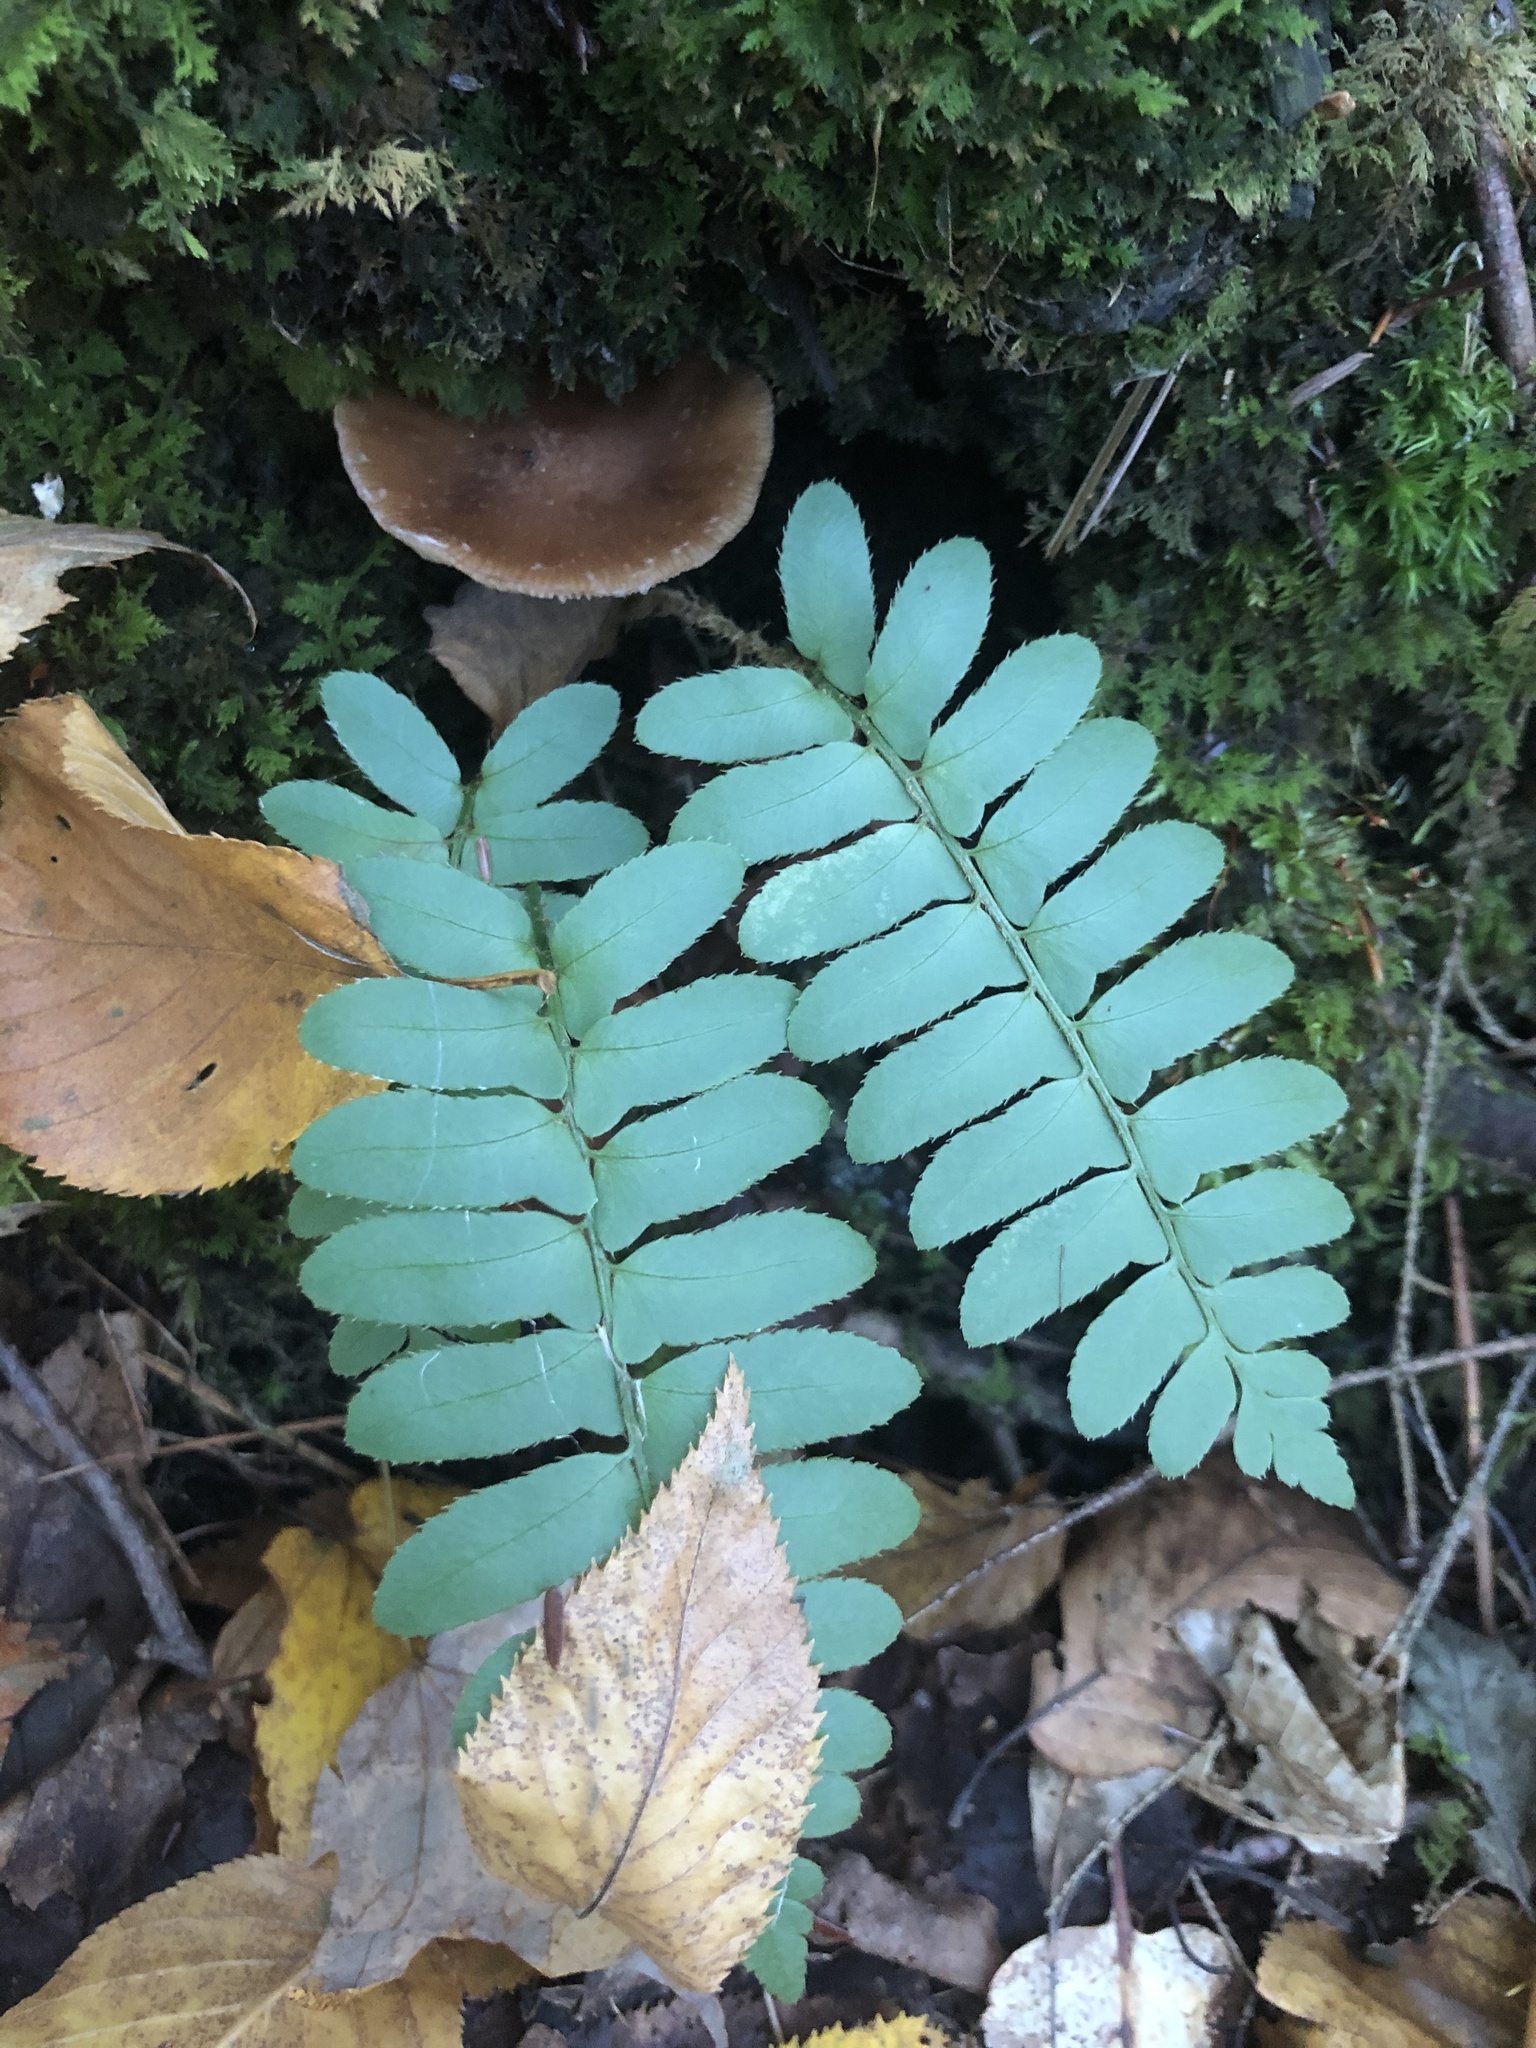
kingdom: Plantae
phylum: Tracheophyta
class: Polypodiopsida
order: Polypodiales
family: Dryopteridaceae
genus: Polystichum
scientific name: Polystichum acrostichoides
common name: Christmas fern
